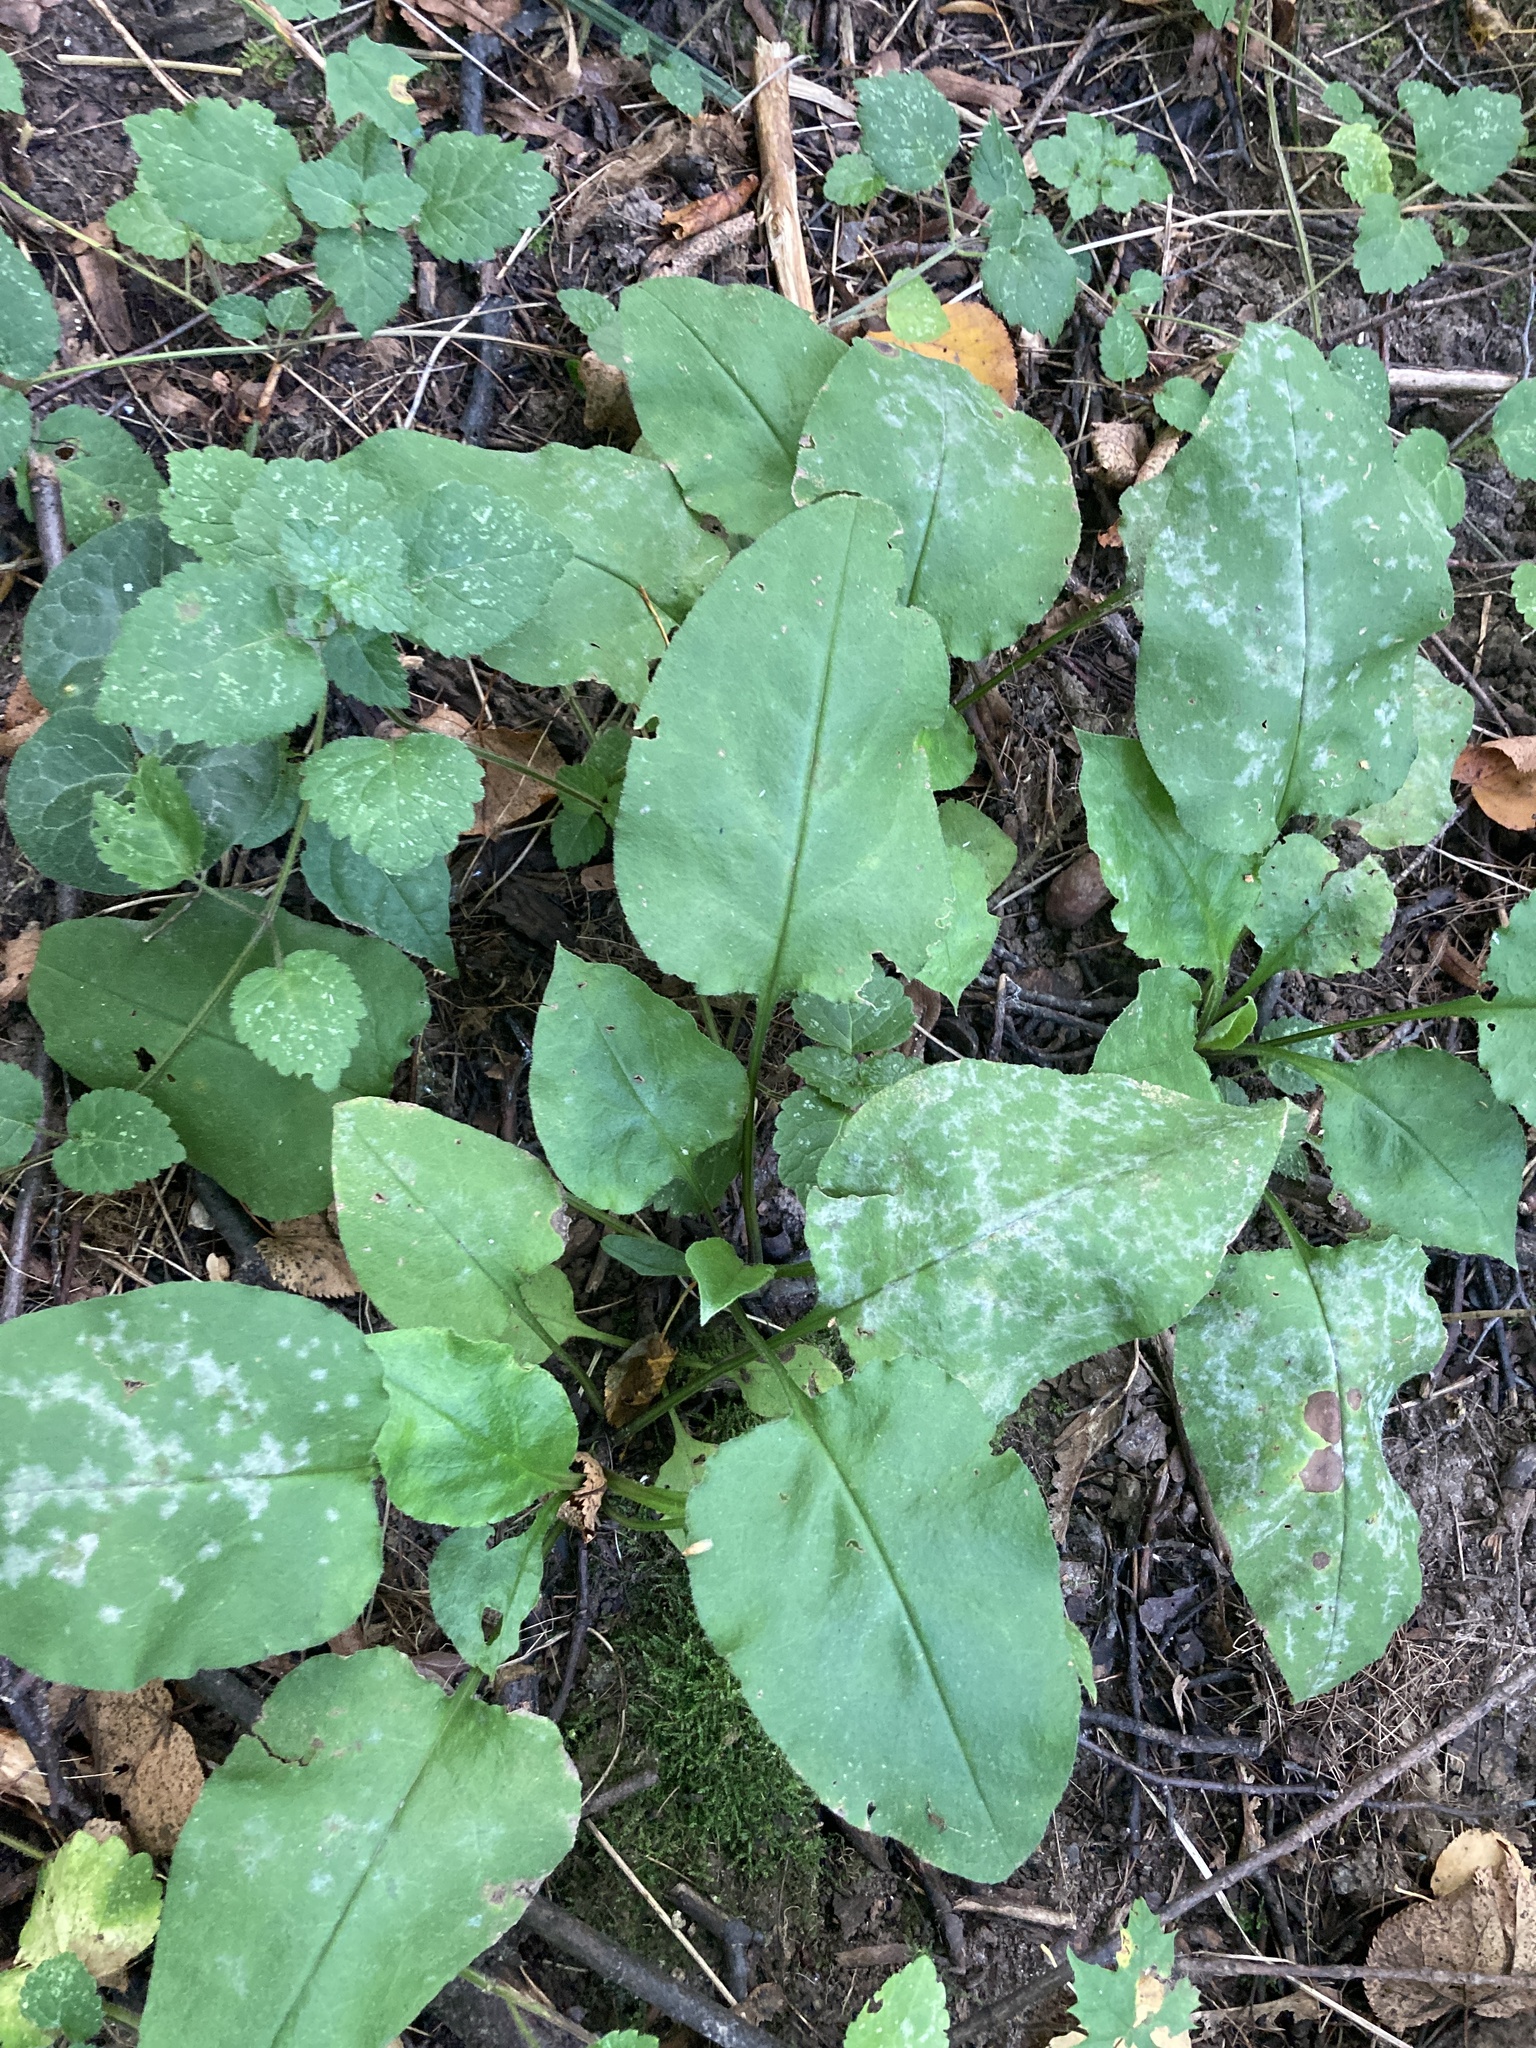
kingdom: Plantae
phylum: Tracheophyta
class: Magnoliopsida
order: Boraginales
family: Boraginaceae
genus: Pulmonaria
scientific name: Pulmonaria obscura
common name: Suffolk lungwort
